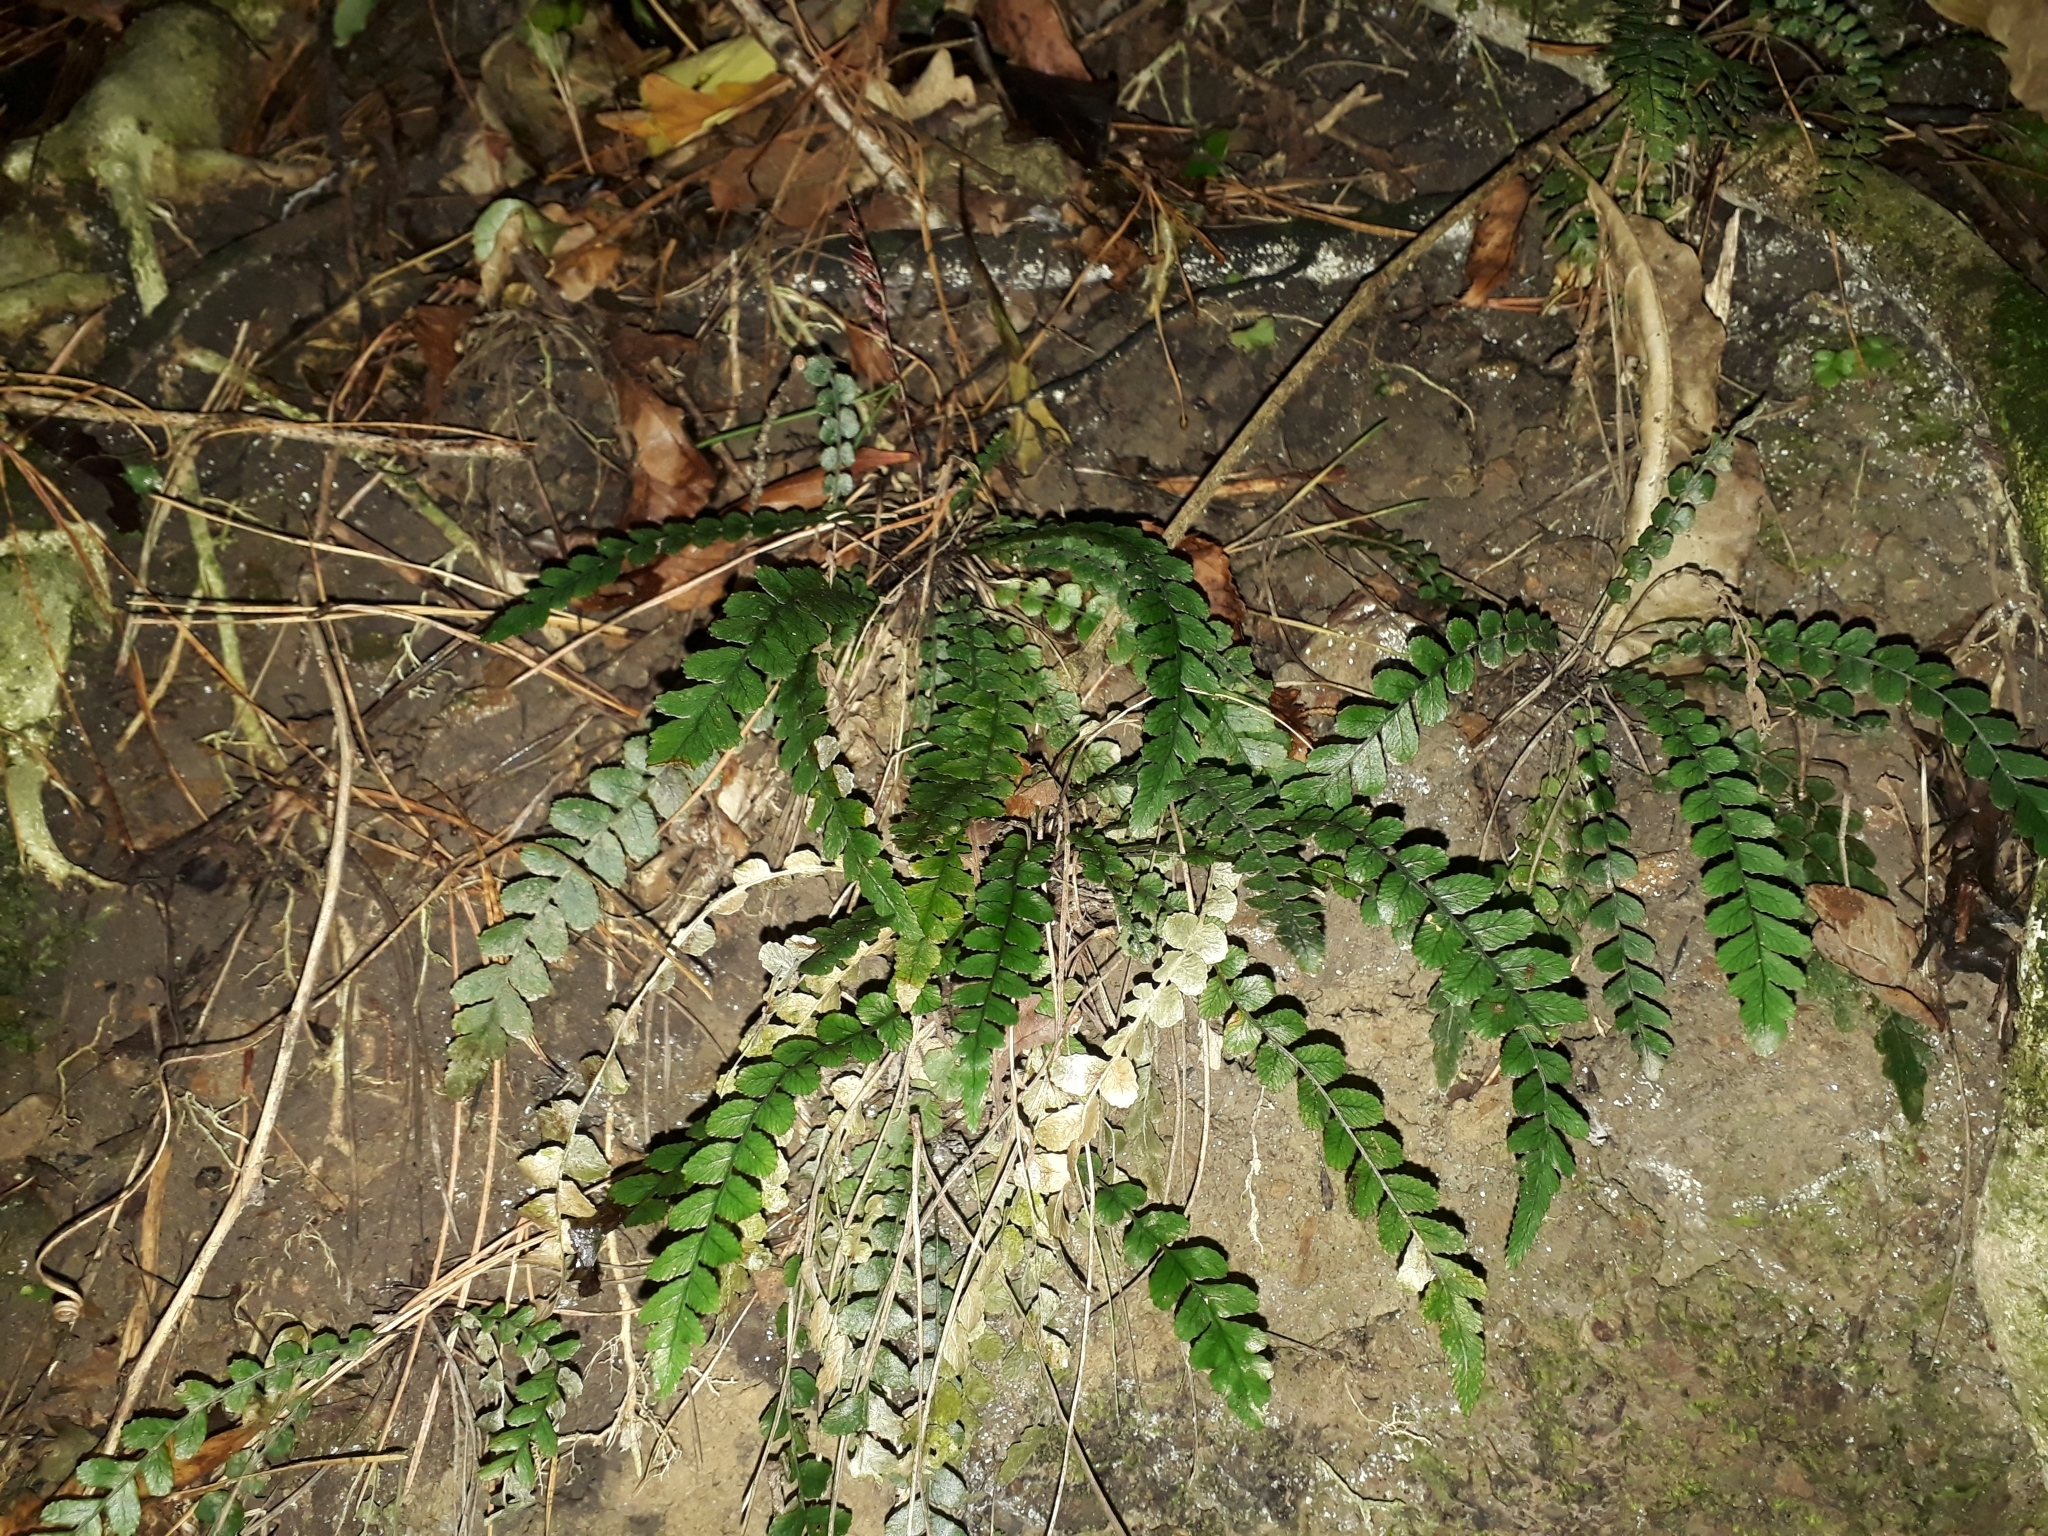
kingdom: Plantae
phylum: Tracheophyta
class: Polypodiopsida
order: Polypodiales
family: Blechnaceae
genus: Austroblechnum
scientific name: Austroblechnum membranaceum
